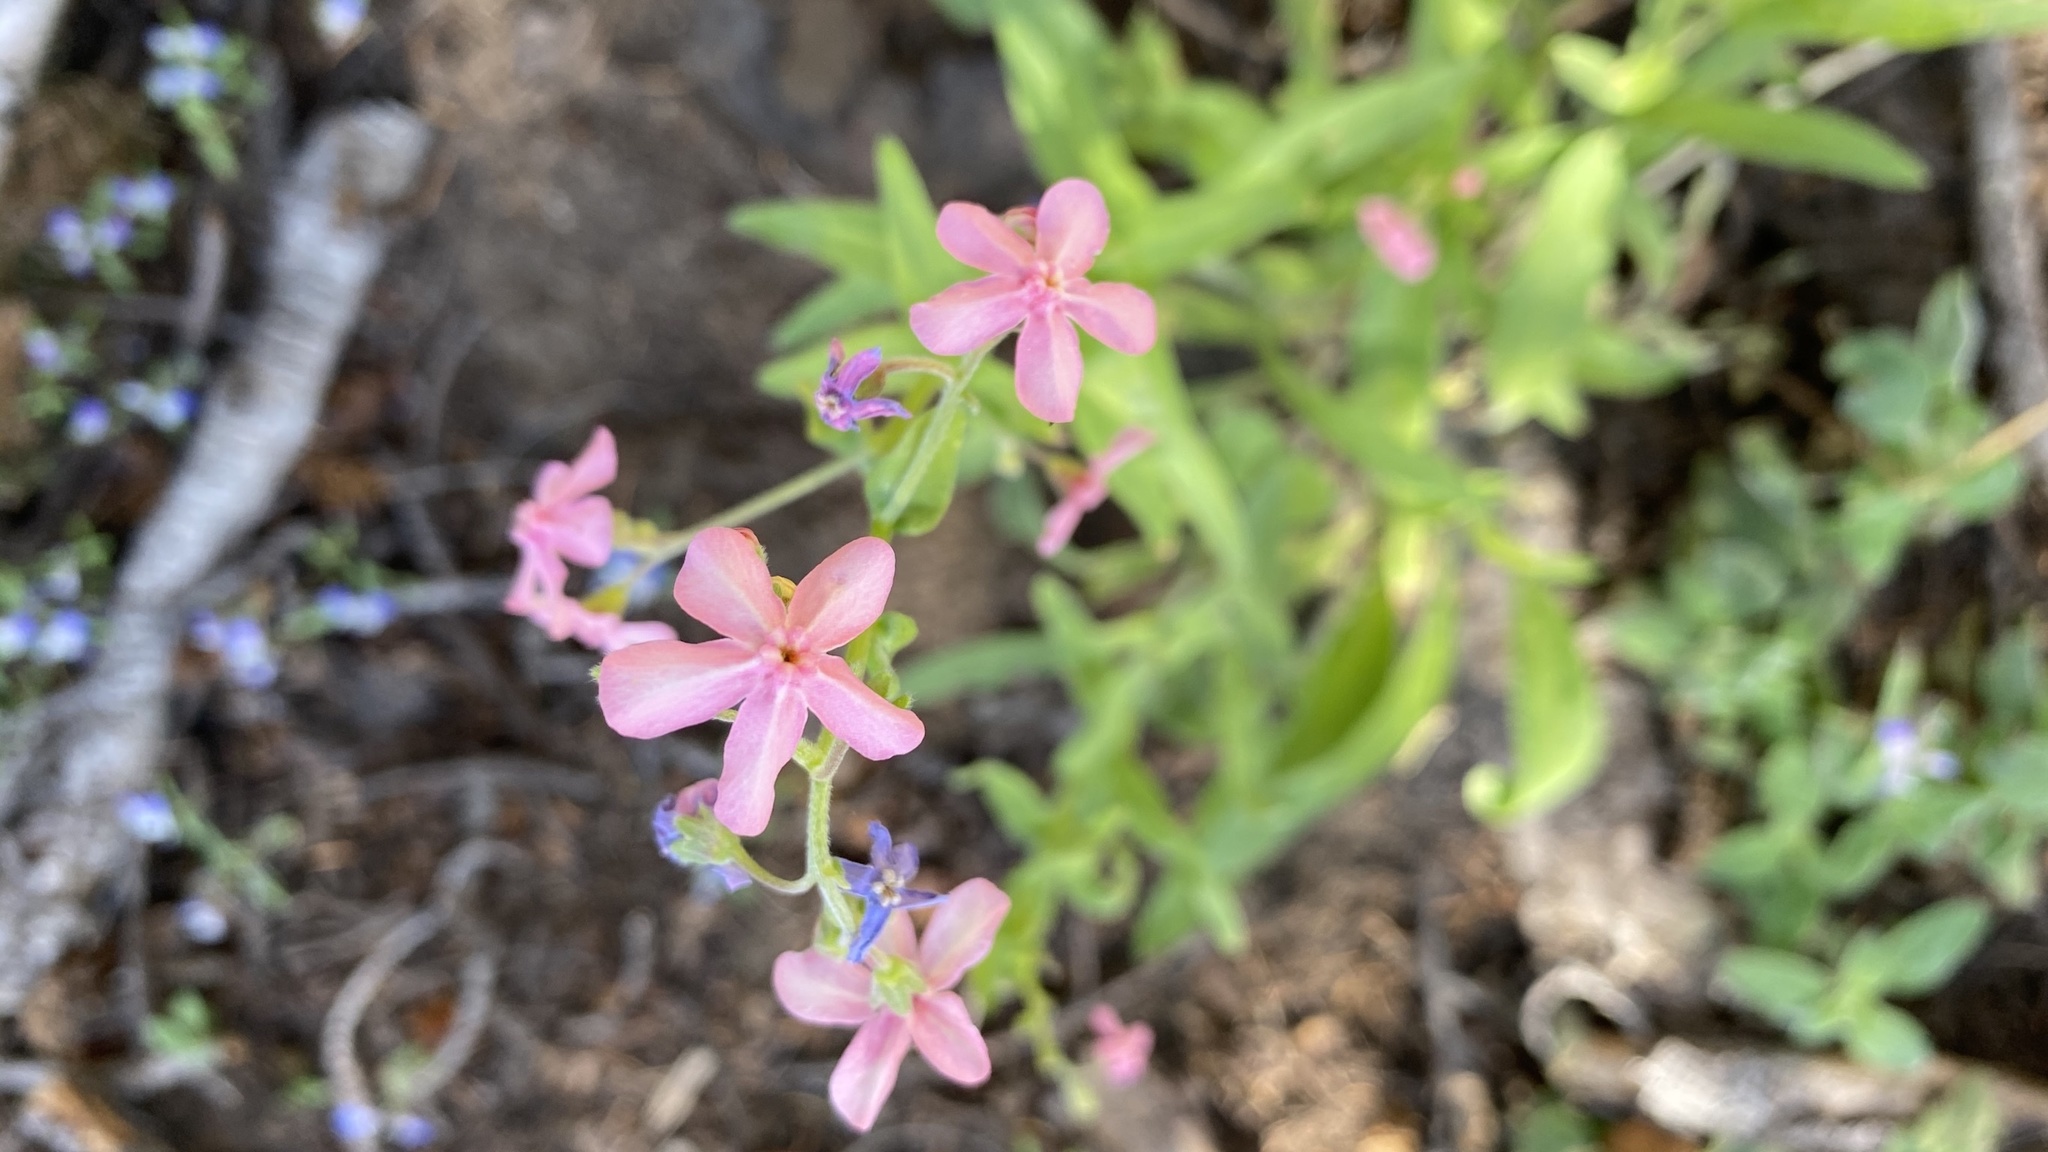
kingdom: Plantae
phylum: Tracheophyta
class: Magnoliopsida
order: Boraginales
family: Boraginaceae
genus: Hackelia
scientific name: Hackelia mundula
